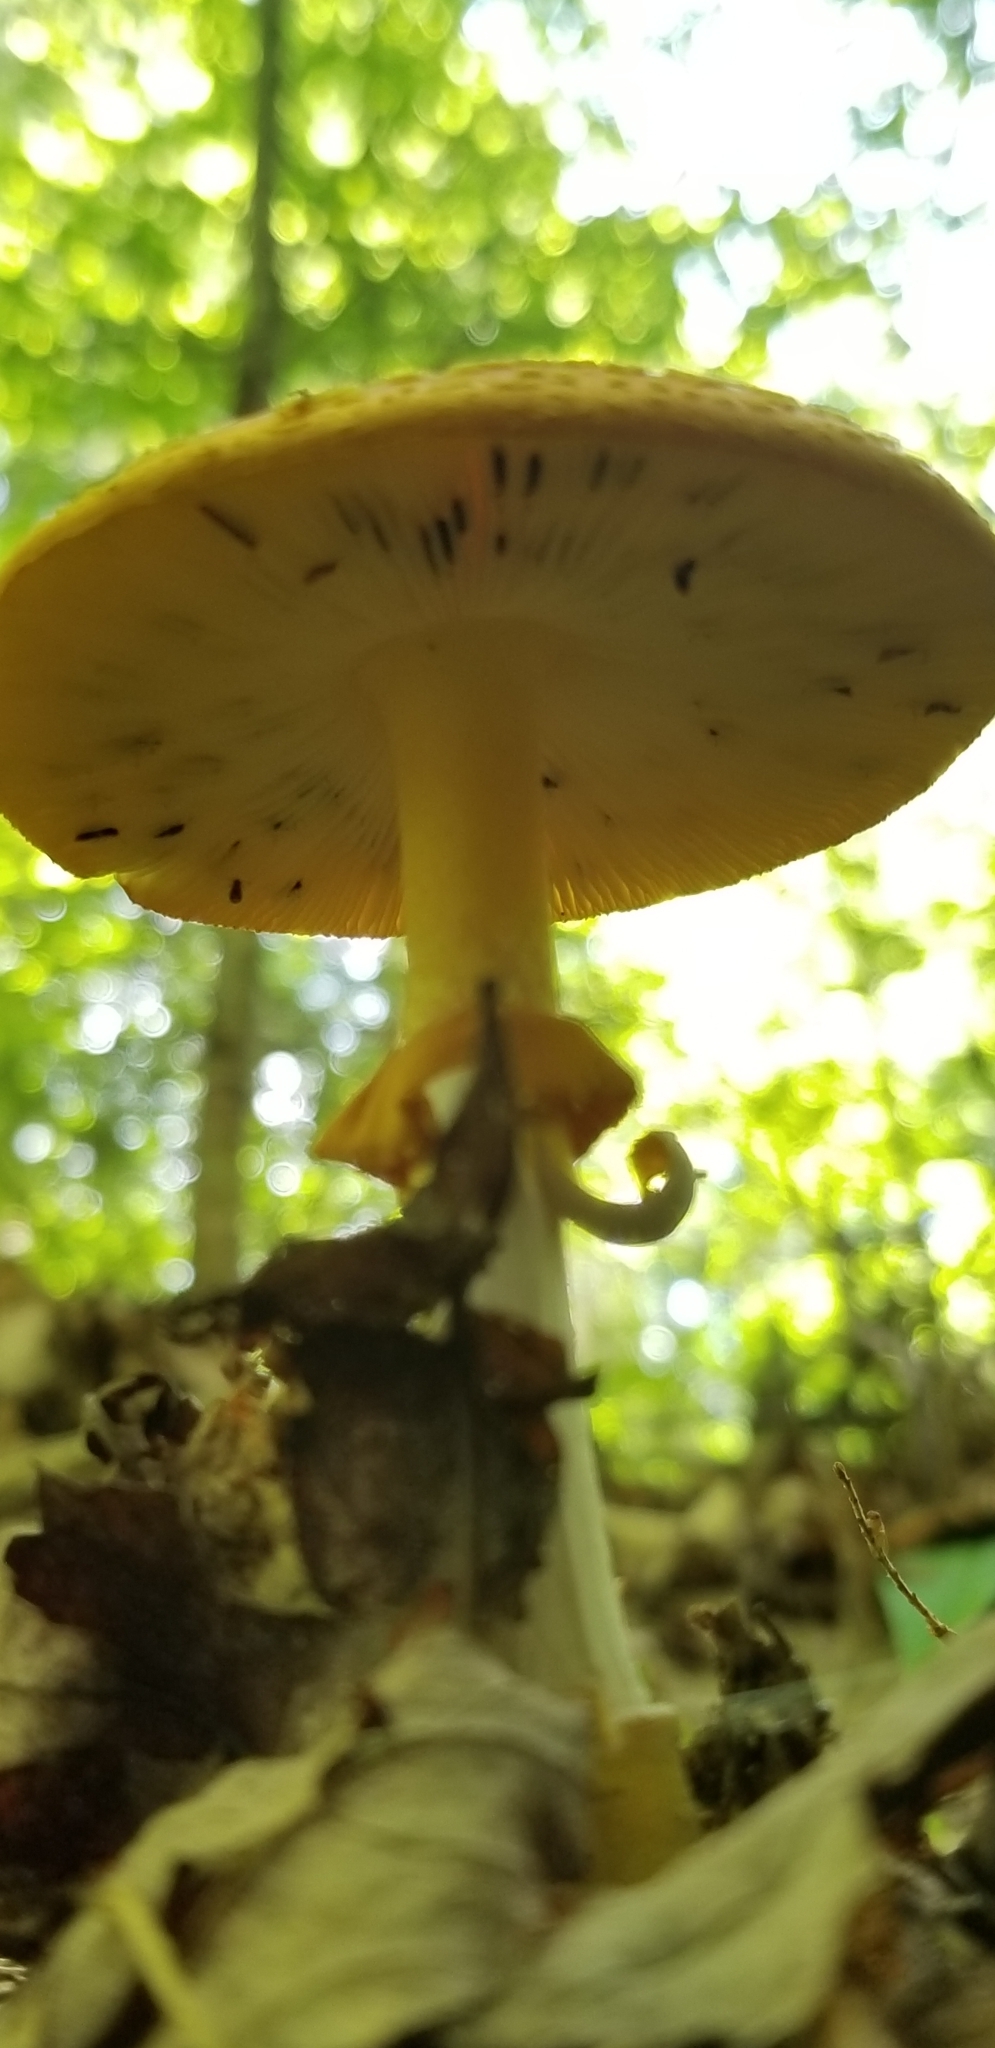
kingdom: Fungi
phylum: Basidiomycota
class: Agaricomycetes
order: Agaricales
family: Amanitaceae
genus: Amanita
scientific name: Amanita flavoconia
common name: Yellow patches
